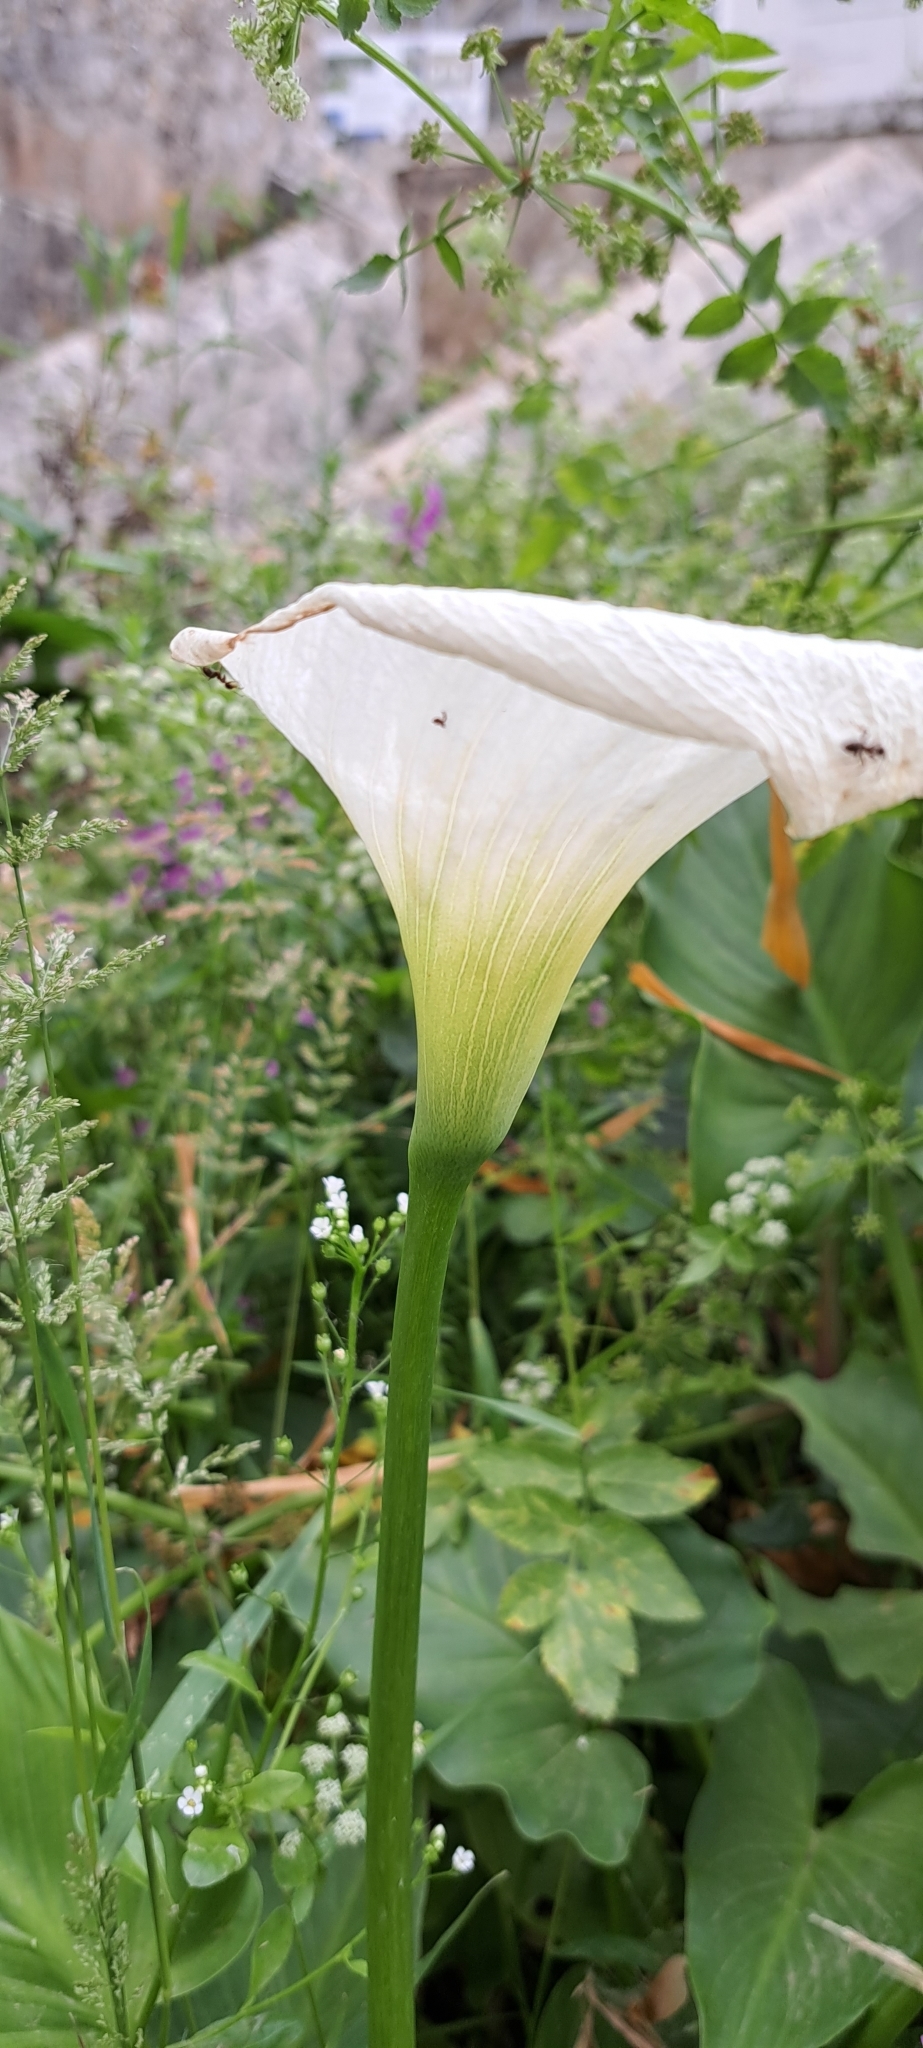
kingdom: Plantae
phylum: Tracheophyta
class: Liliopsida
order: Alismatales
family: Araceae
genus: Zantedeschia
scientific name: Zantedeschia aethiopica
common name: Altar-lily
